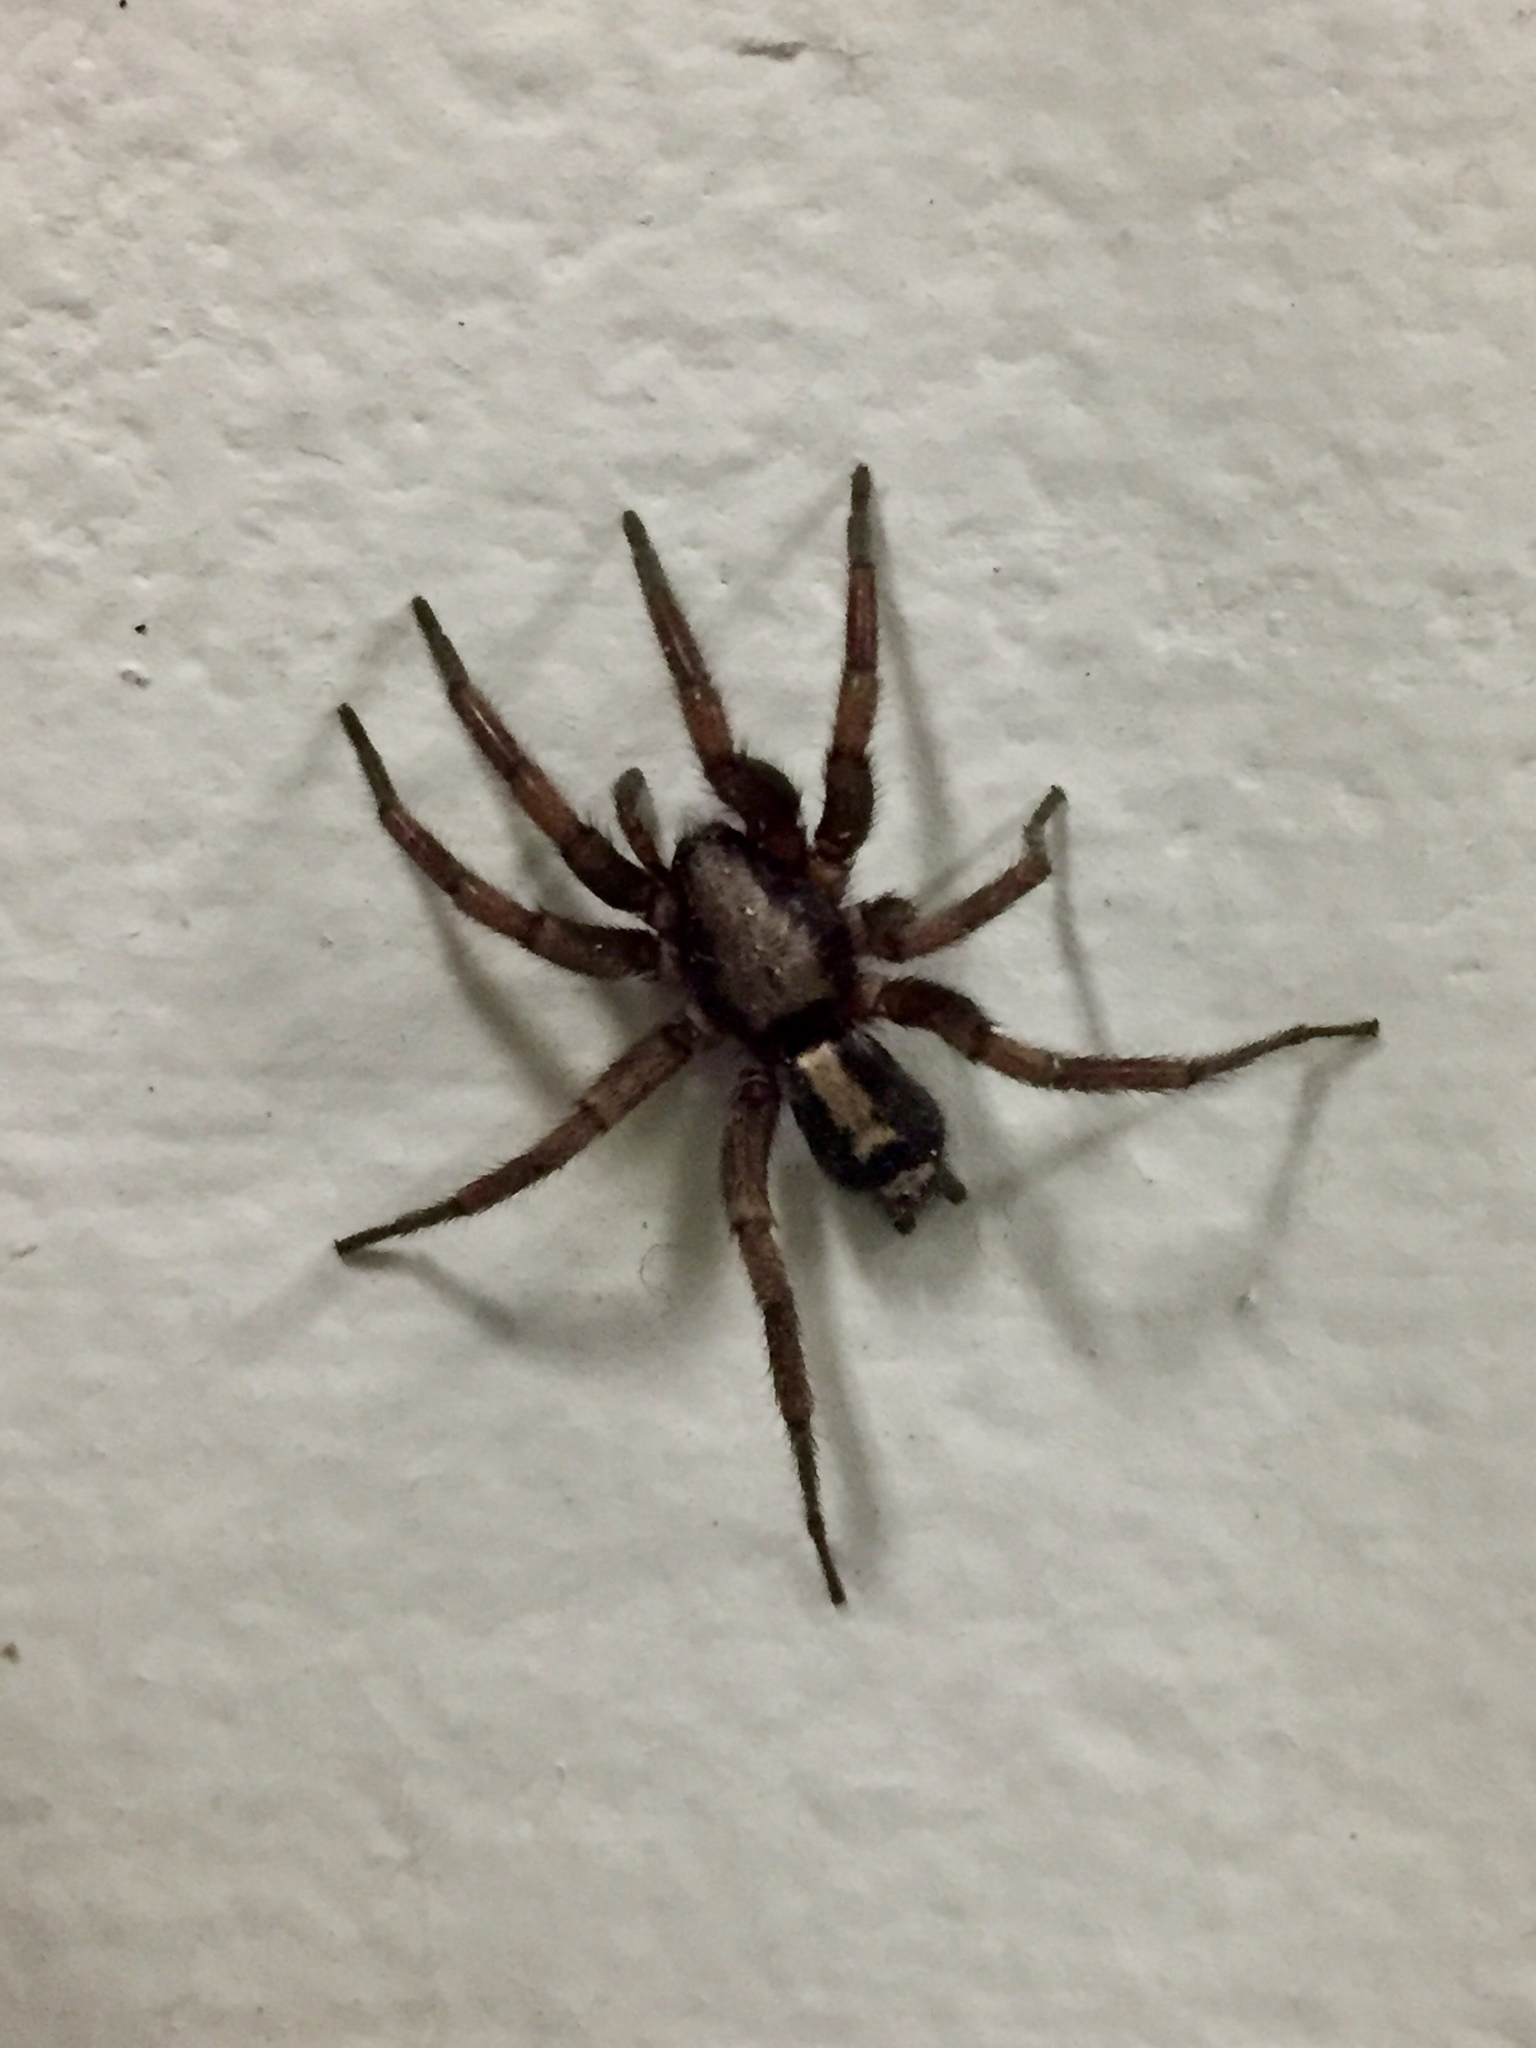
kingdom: Animalia
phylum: Arthropoda
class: Arachnida
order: Araneae
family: Gnaphosidae
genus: Herpyllus
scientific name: Herpyllus ecclesiasticus
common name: Eastern parson spider
